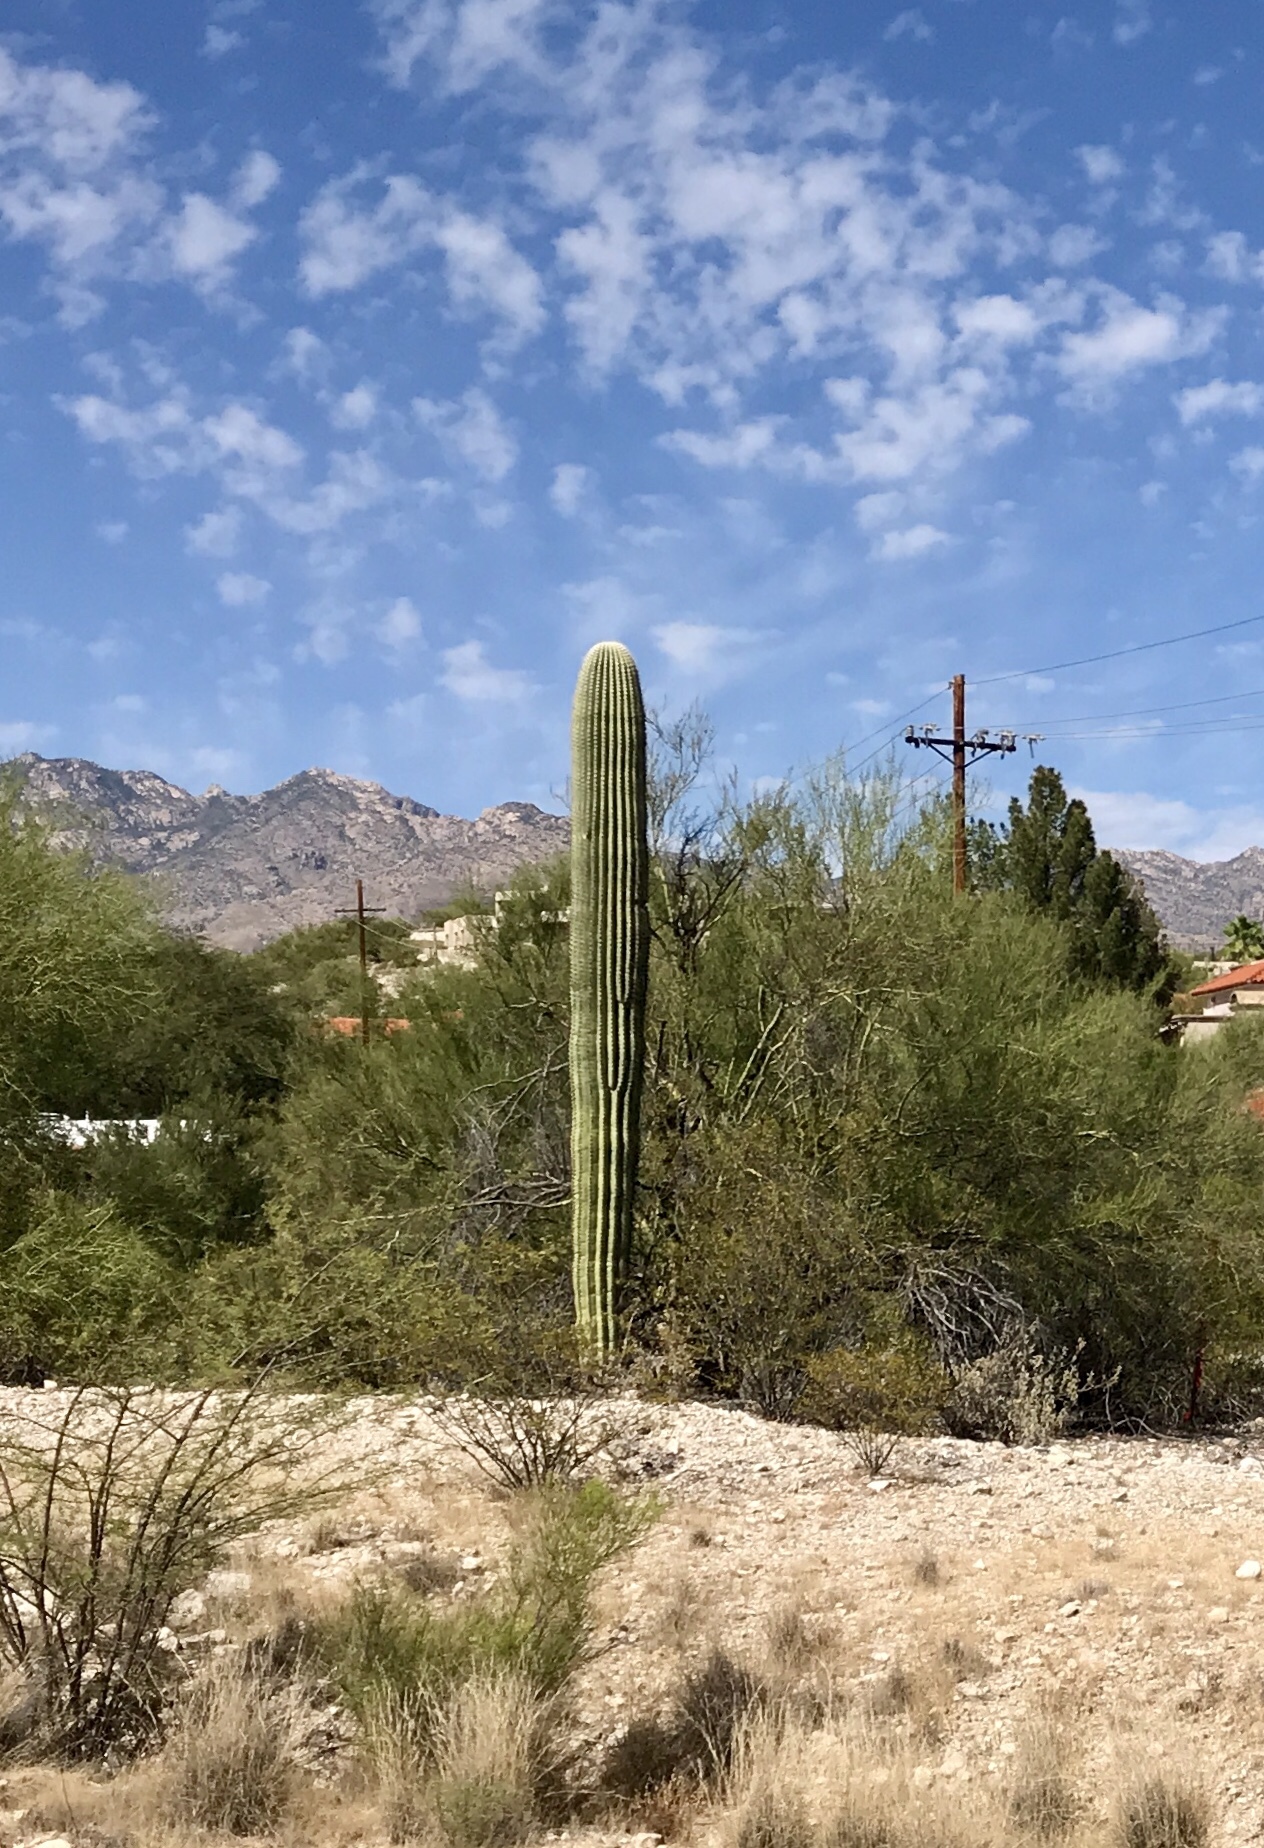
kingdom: Plantae
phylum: Tracheophyta
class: Magnoliopsida
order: Caryophyllales
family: Cactaceae
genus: Carnegiea
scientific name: Carnegiea gigantea
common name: Saguaro
